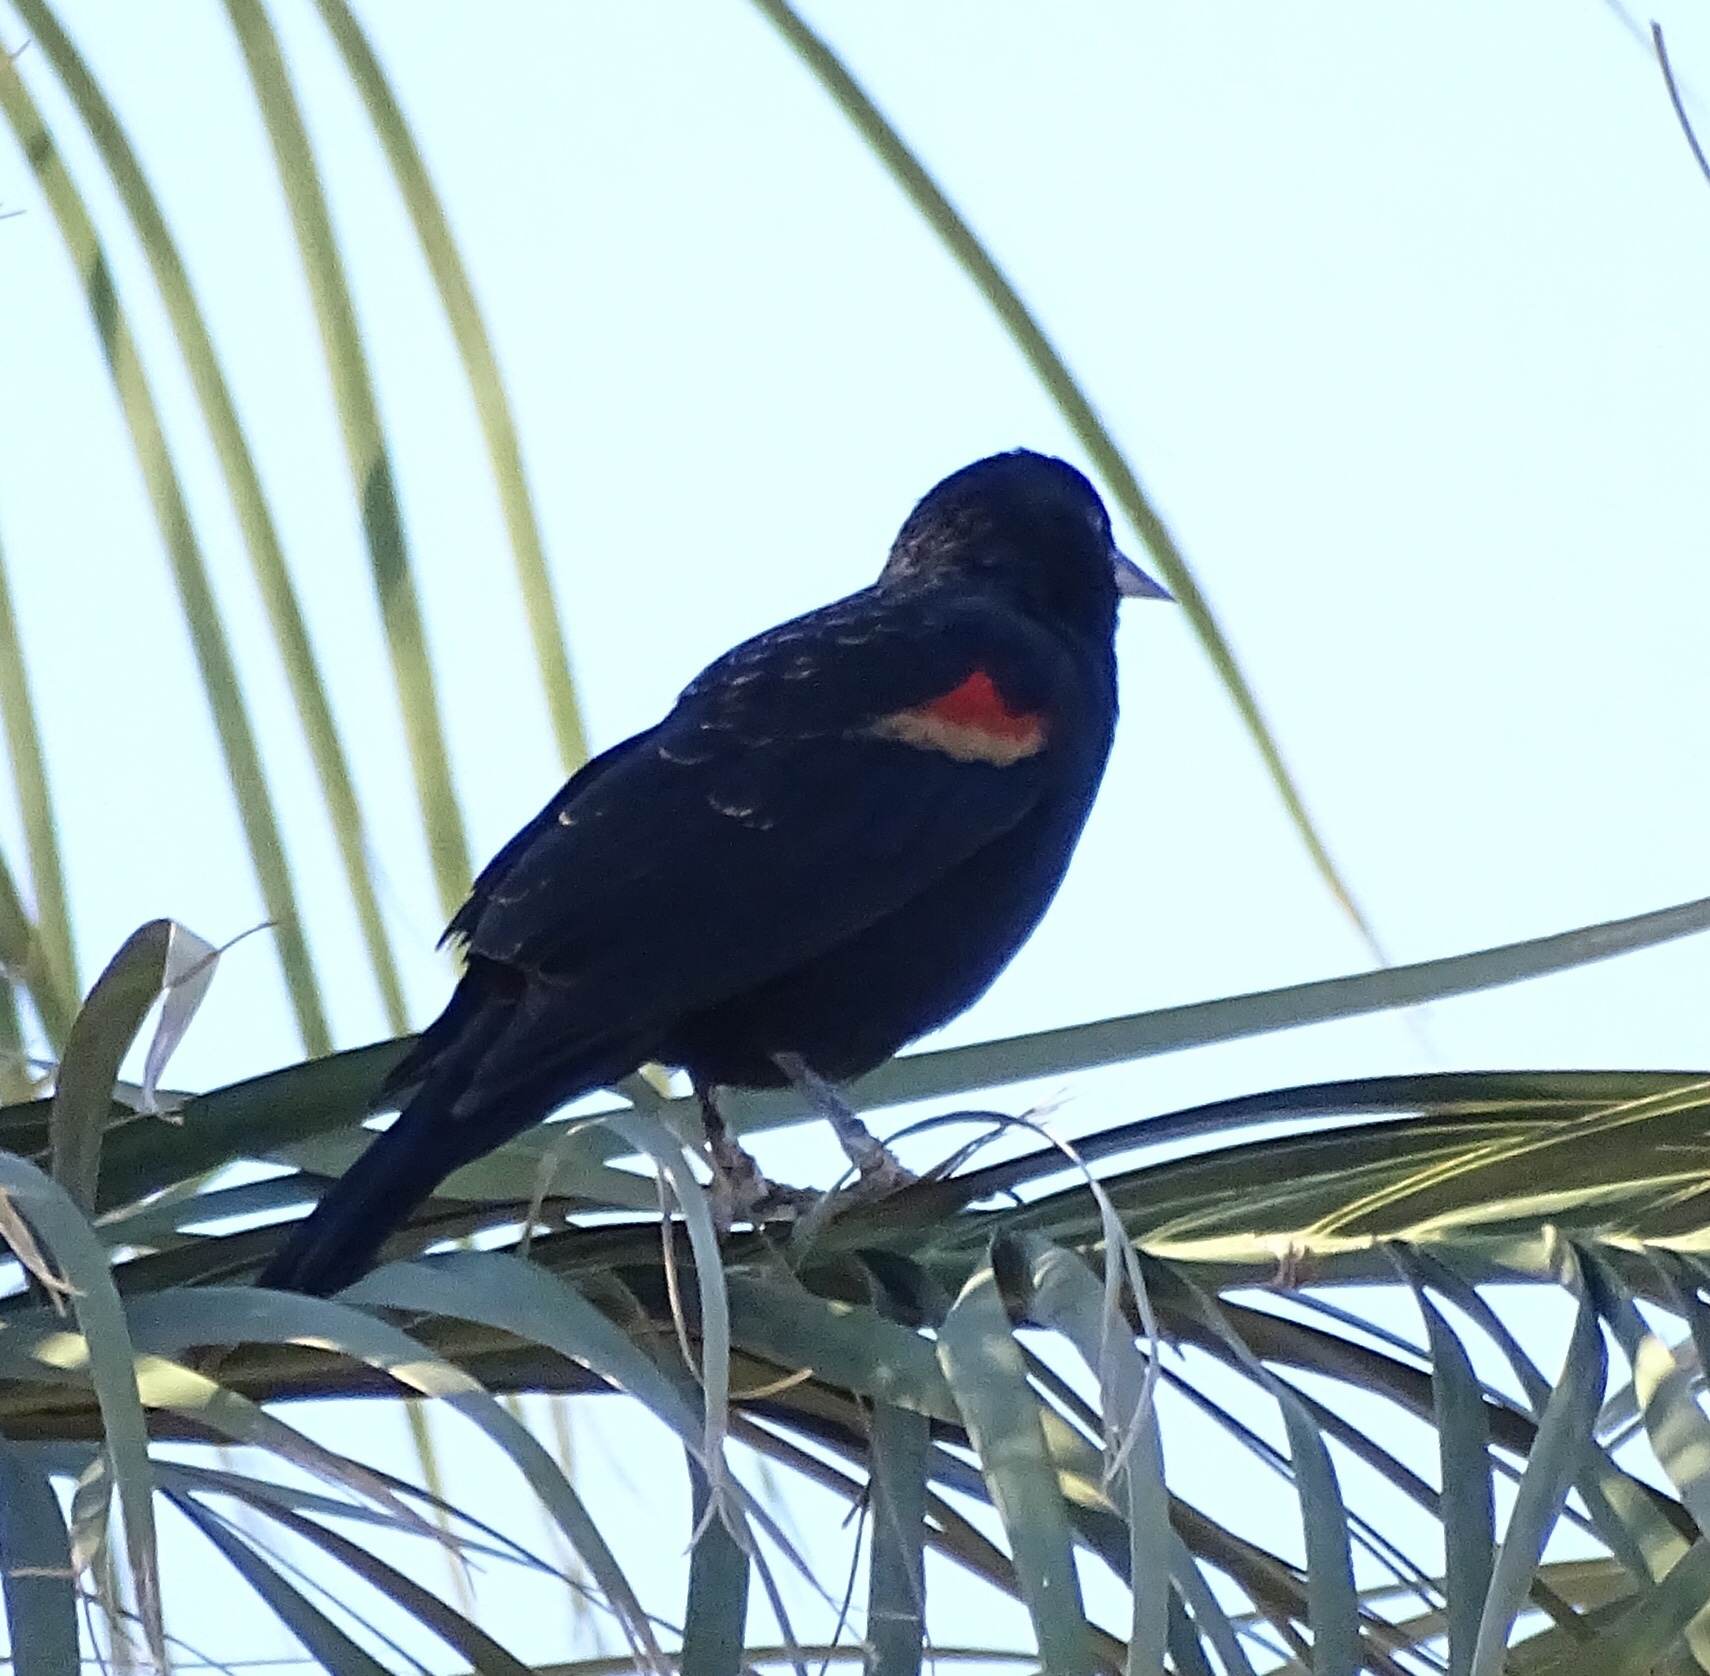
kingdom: Animalia
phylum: Chordata
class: Aves
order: Passeriformes
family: Icteridae
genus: Agelaius
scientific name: Agelaius phoeniceus
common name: Red-winged blackbird
